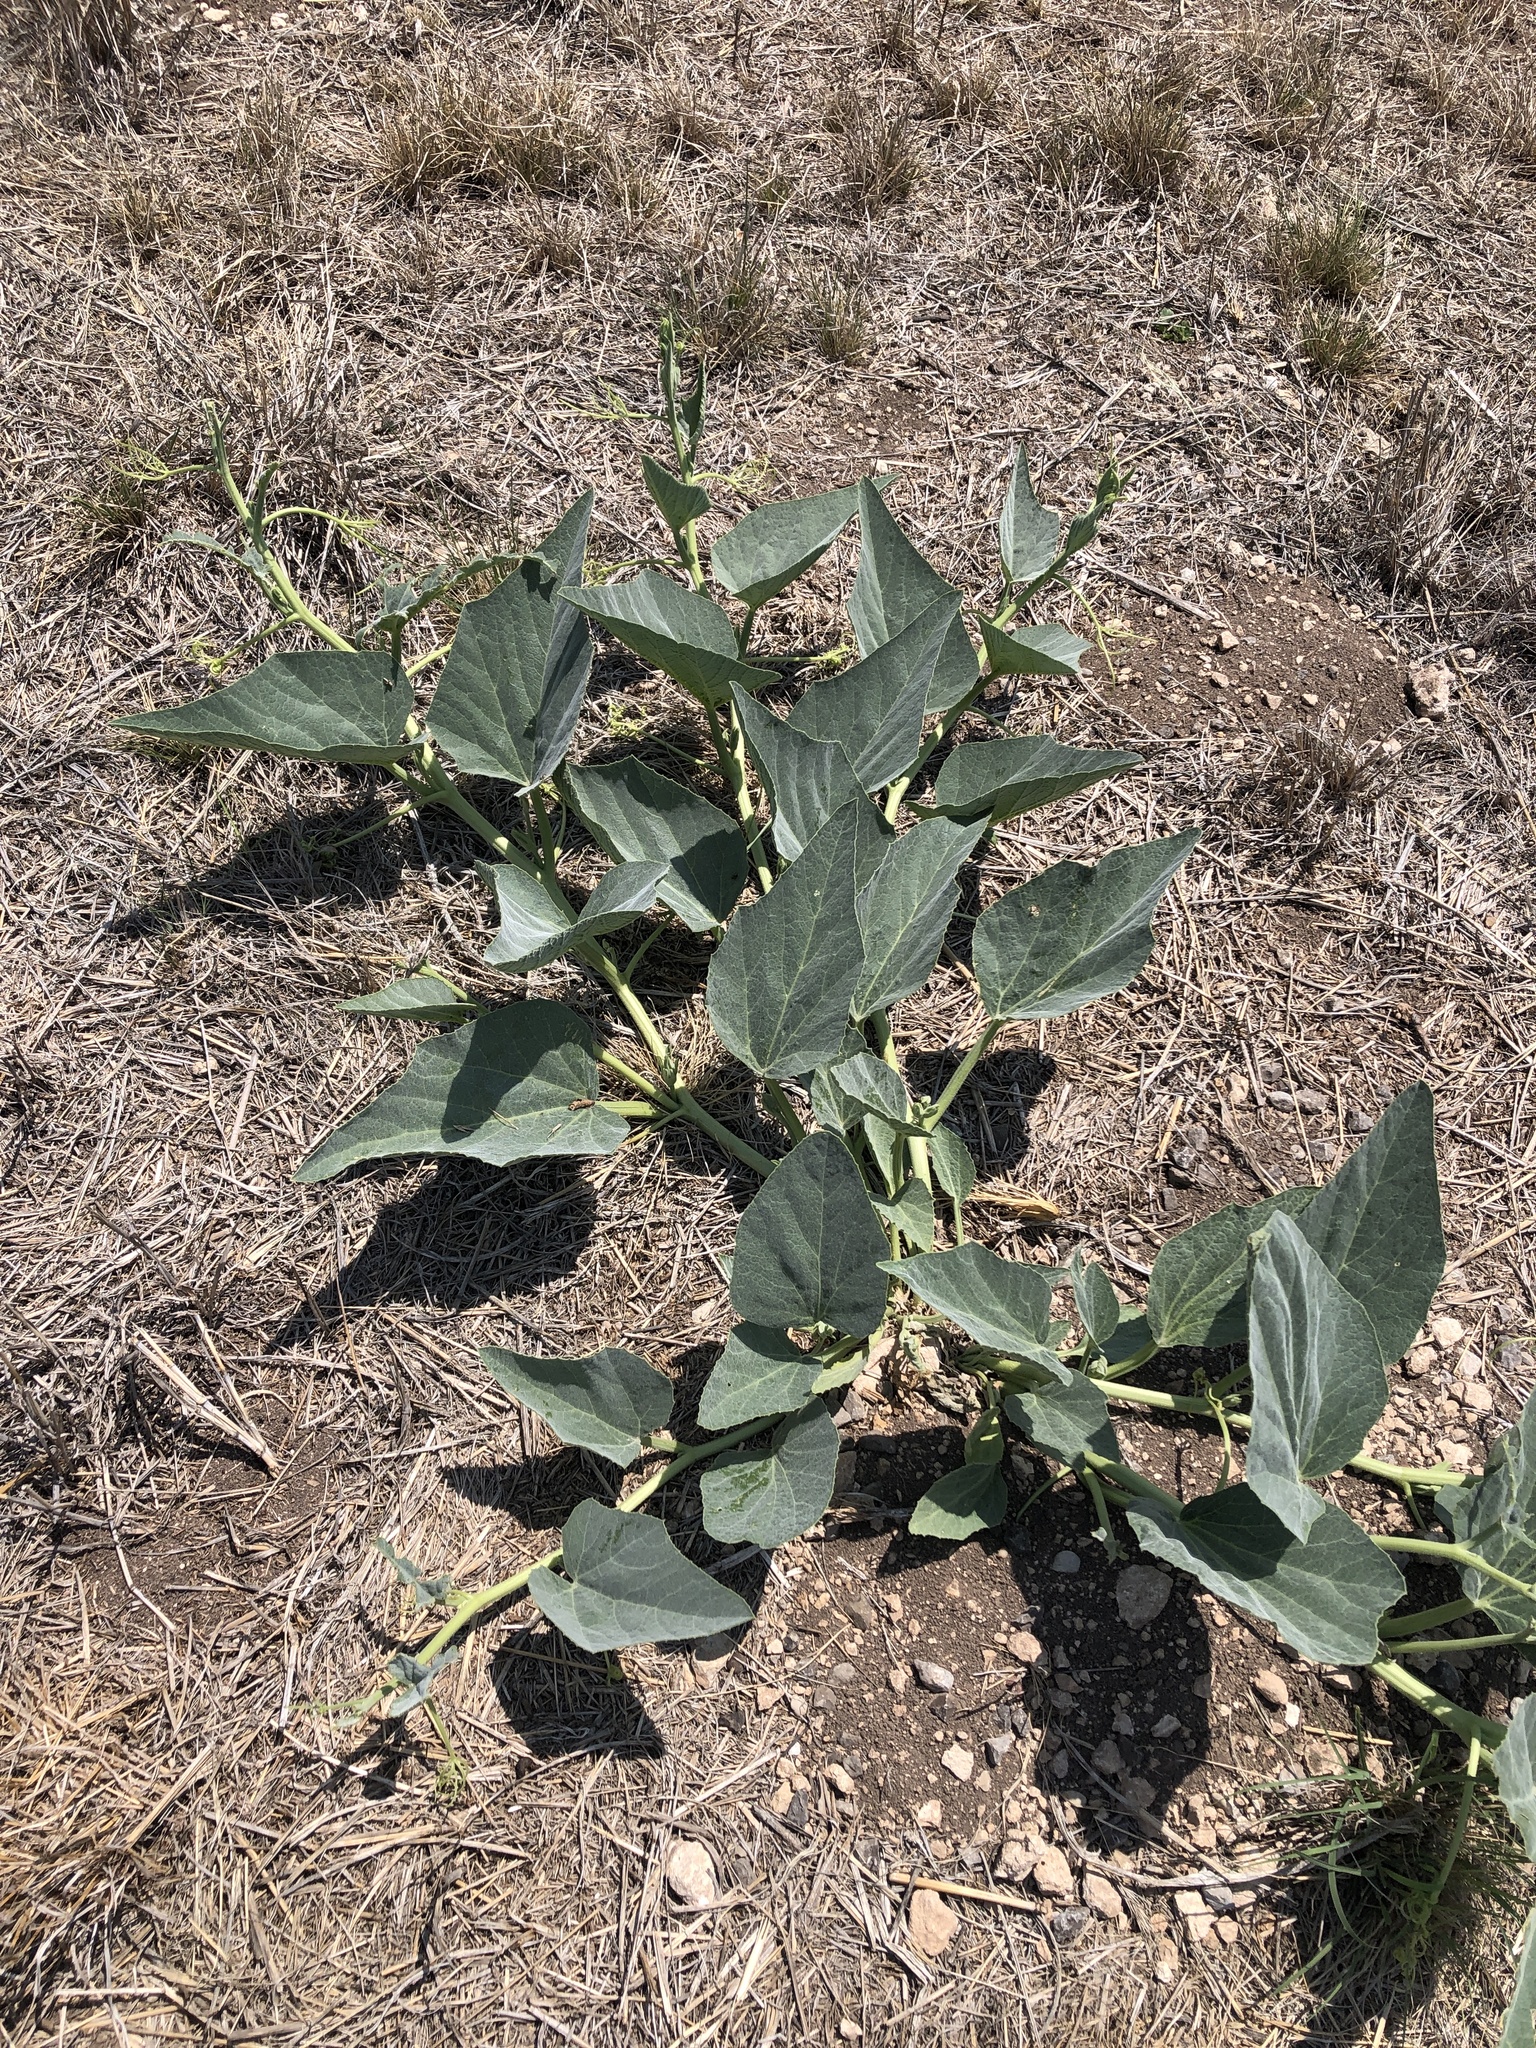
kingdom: Plantae
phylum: Tracheophyta
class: Magnoliopsida
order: Cucurbitales
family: Cucurbitaceae
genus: Cucurbita
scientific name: Cucurbita foetidissima
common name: Buffalo gourd
